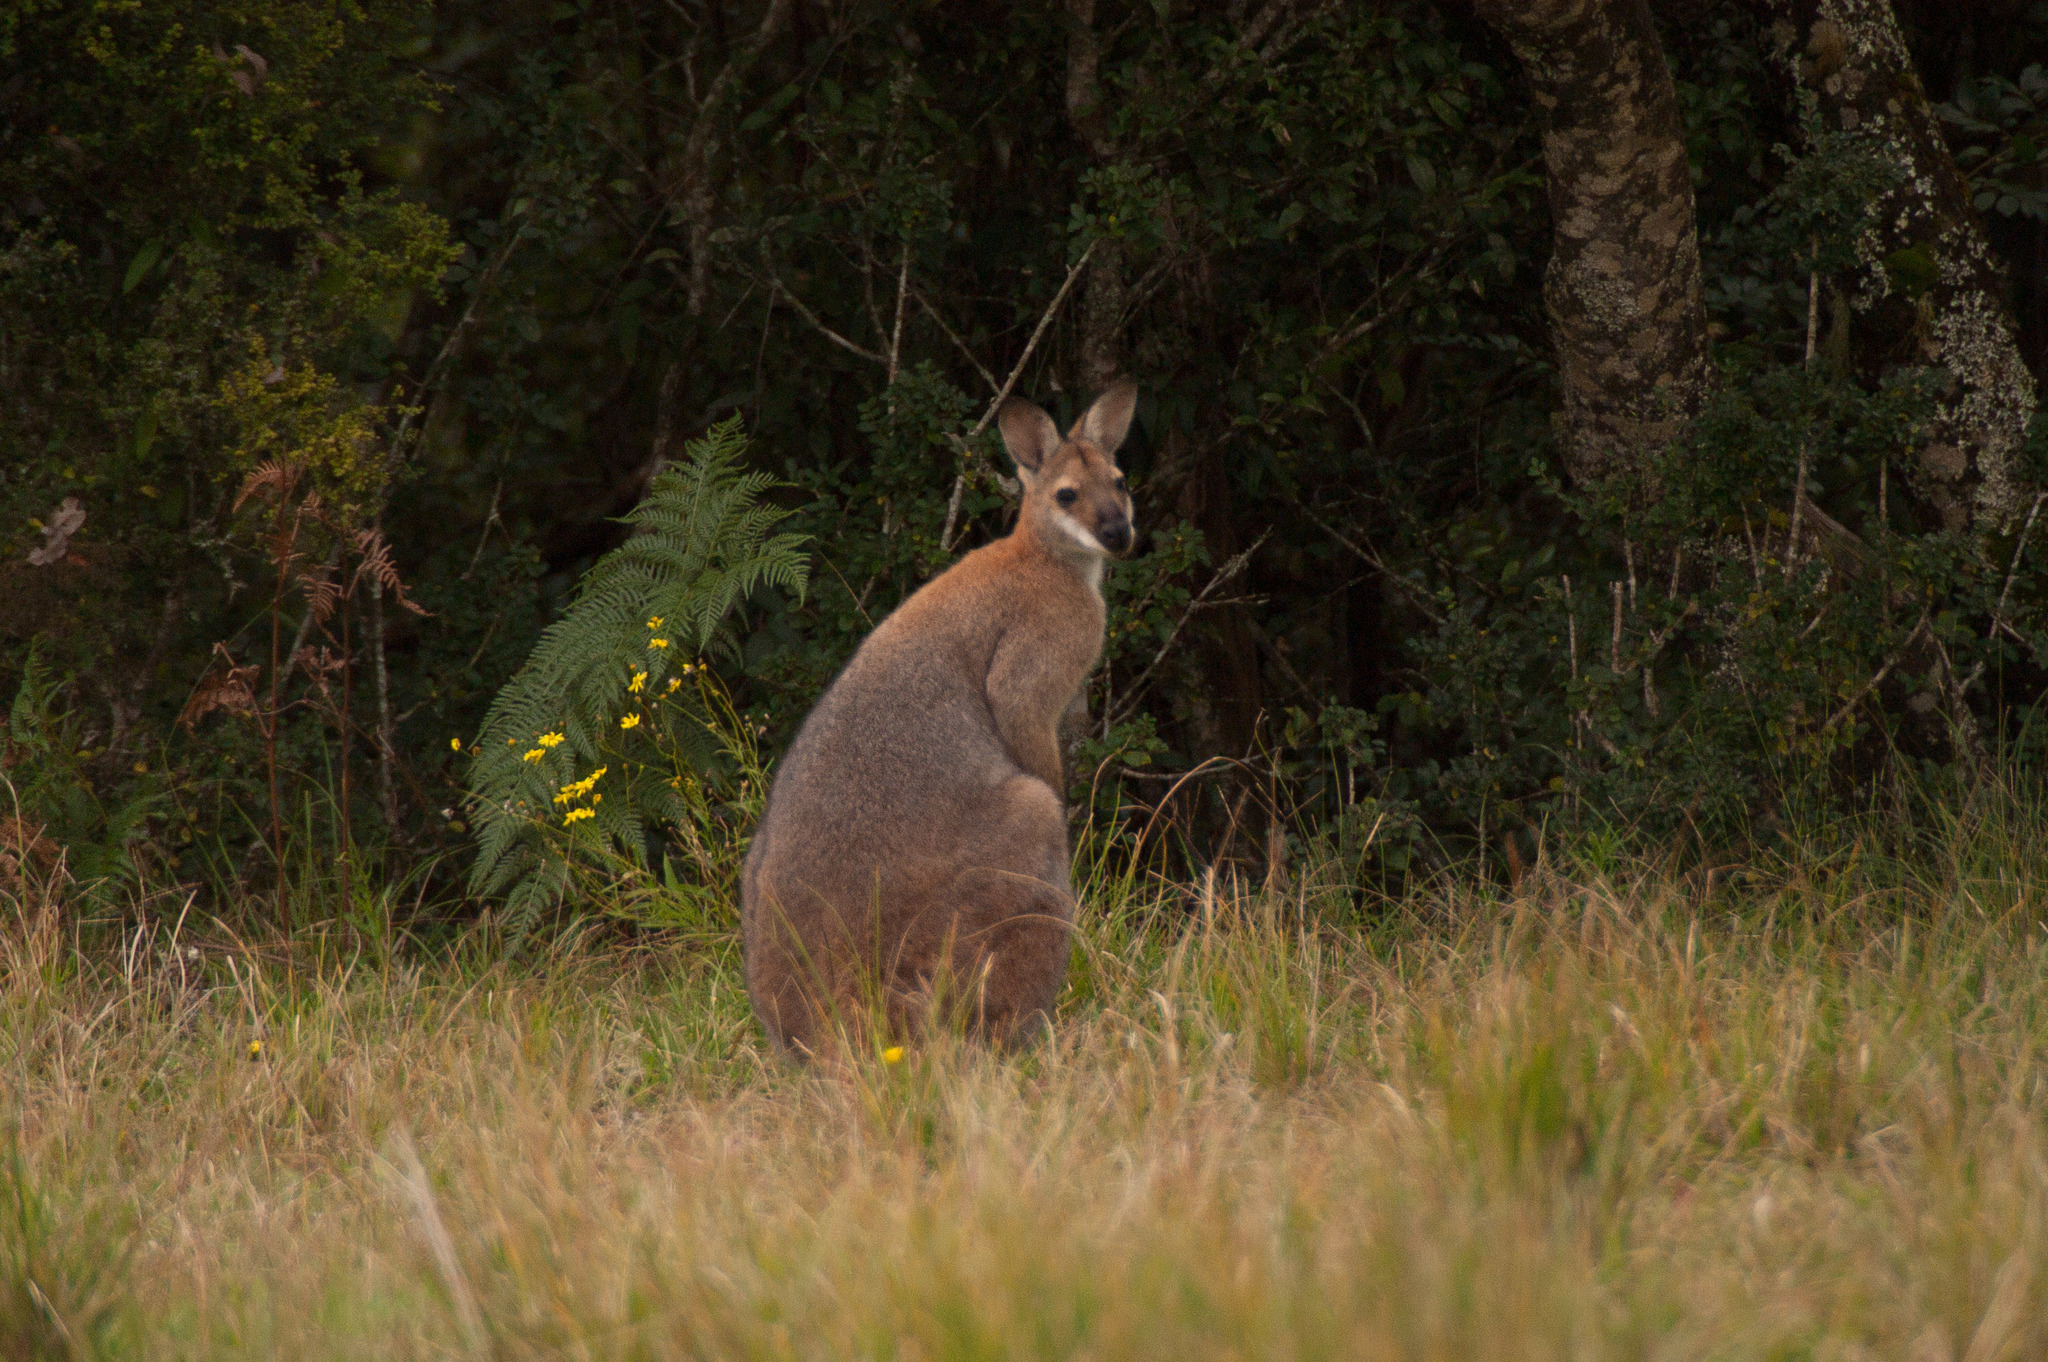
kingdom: Animalia
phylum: Chordata
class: Mammalia
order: Diprotodontia
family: Macropodidae
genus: Notamacropus
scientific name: Notamacropus rufogriseus
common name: Red-necked wallaby
